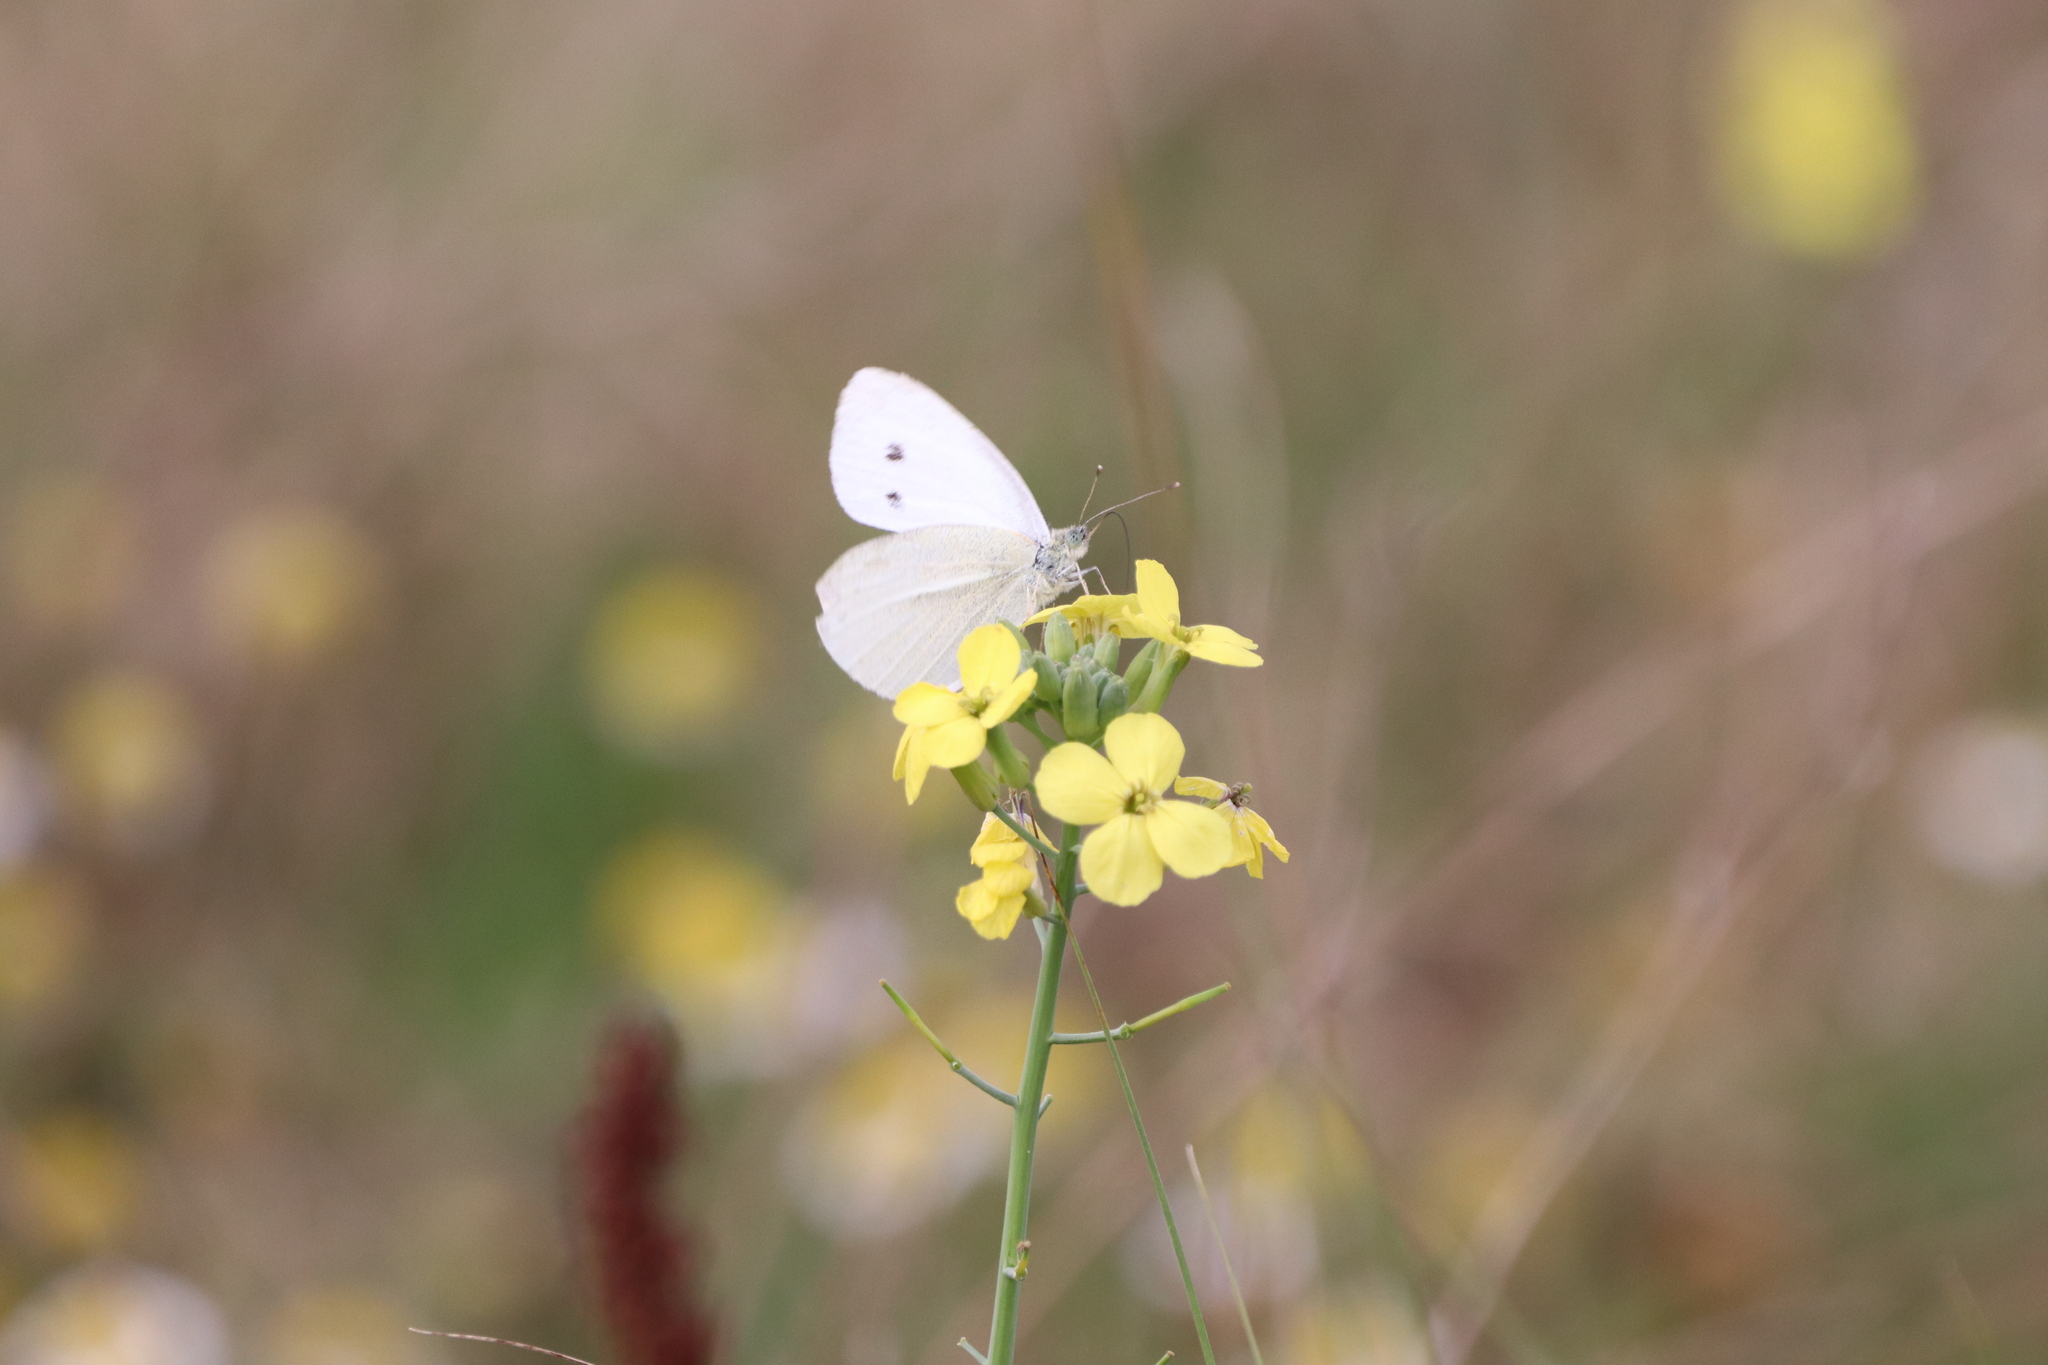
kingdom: Animalia
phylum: Arthropoda
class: Insecta
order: Lepidoptera
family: Pieridae
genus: Pieris
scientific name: Pieris rapae
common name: Small white
